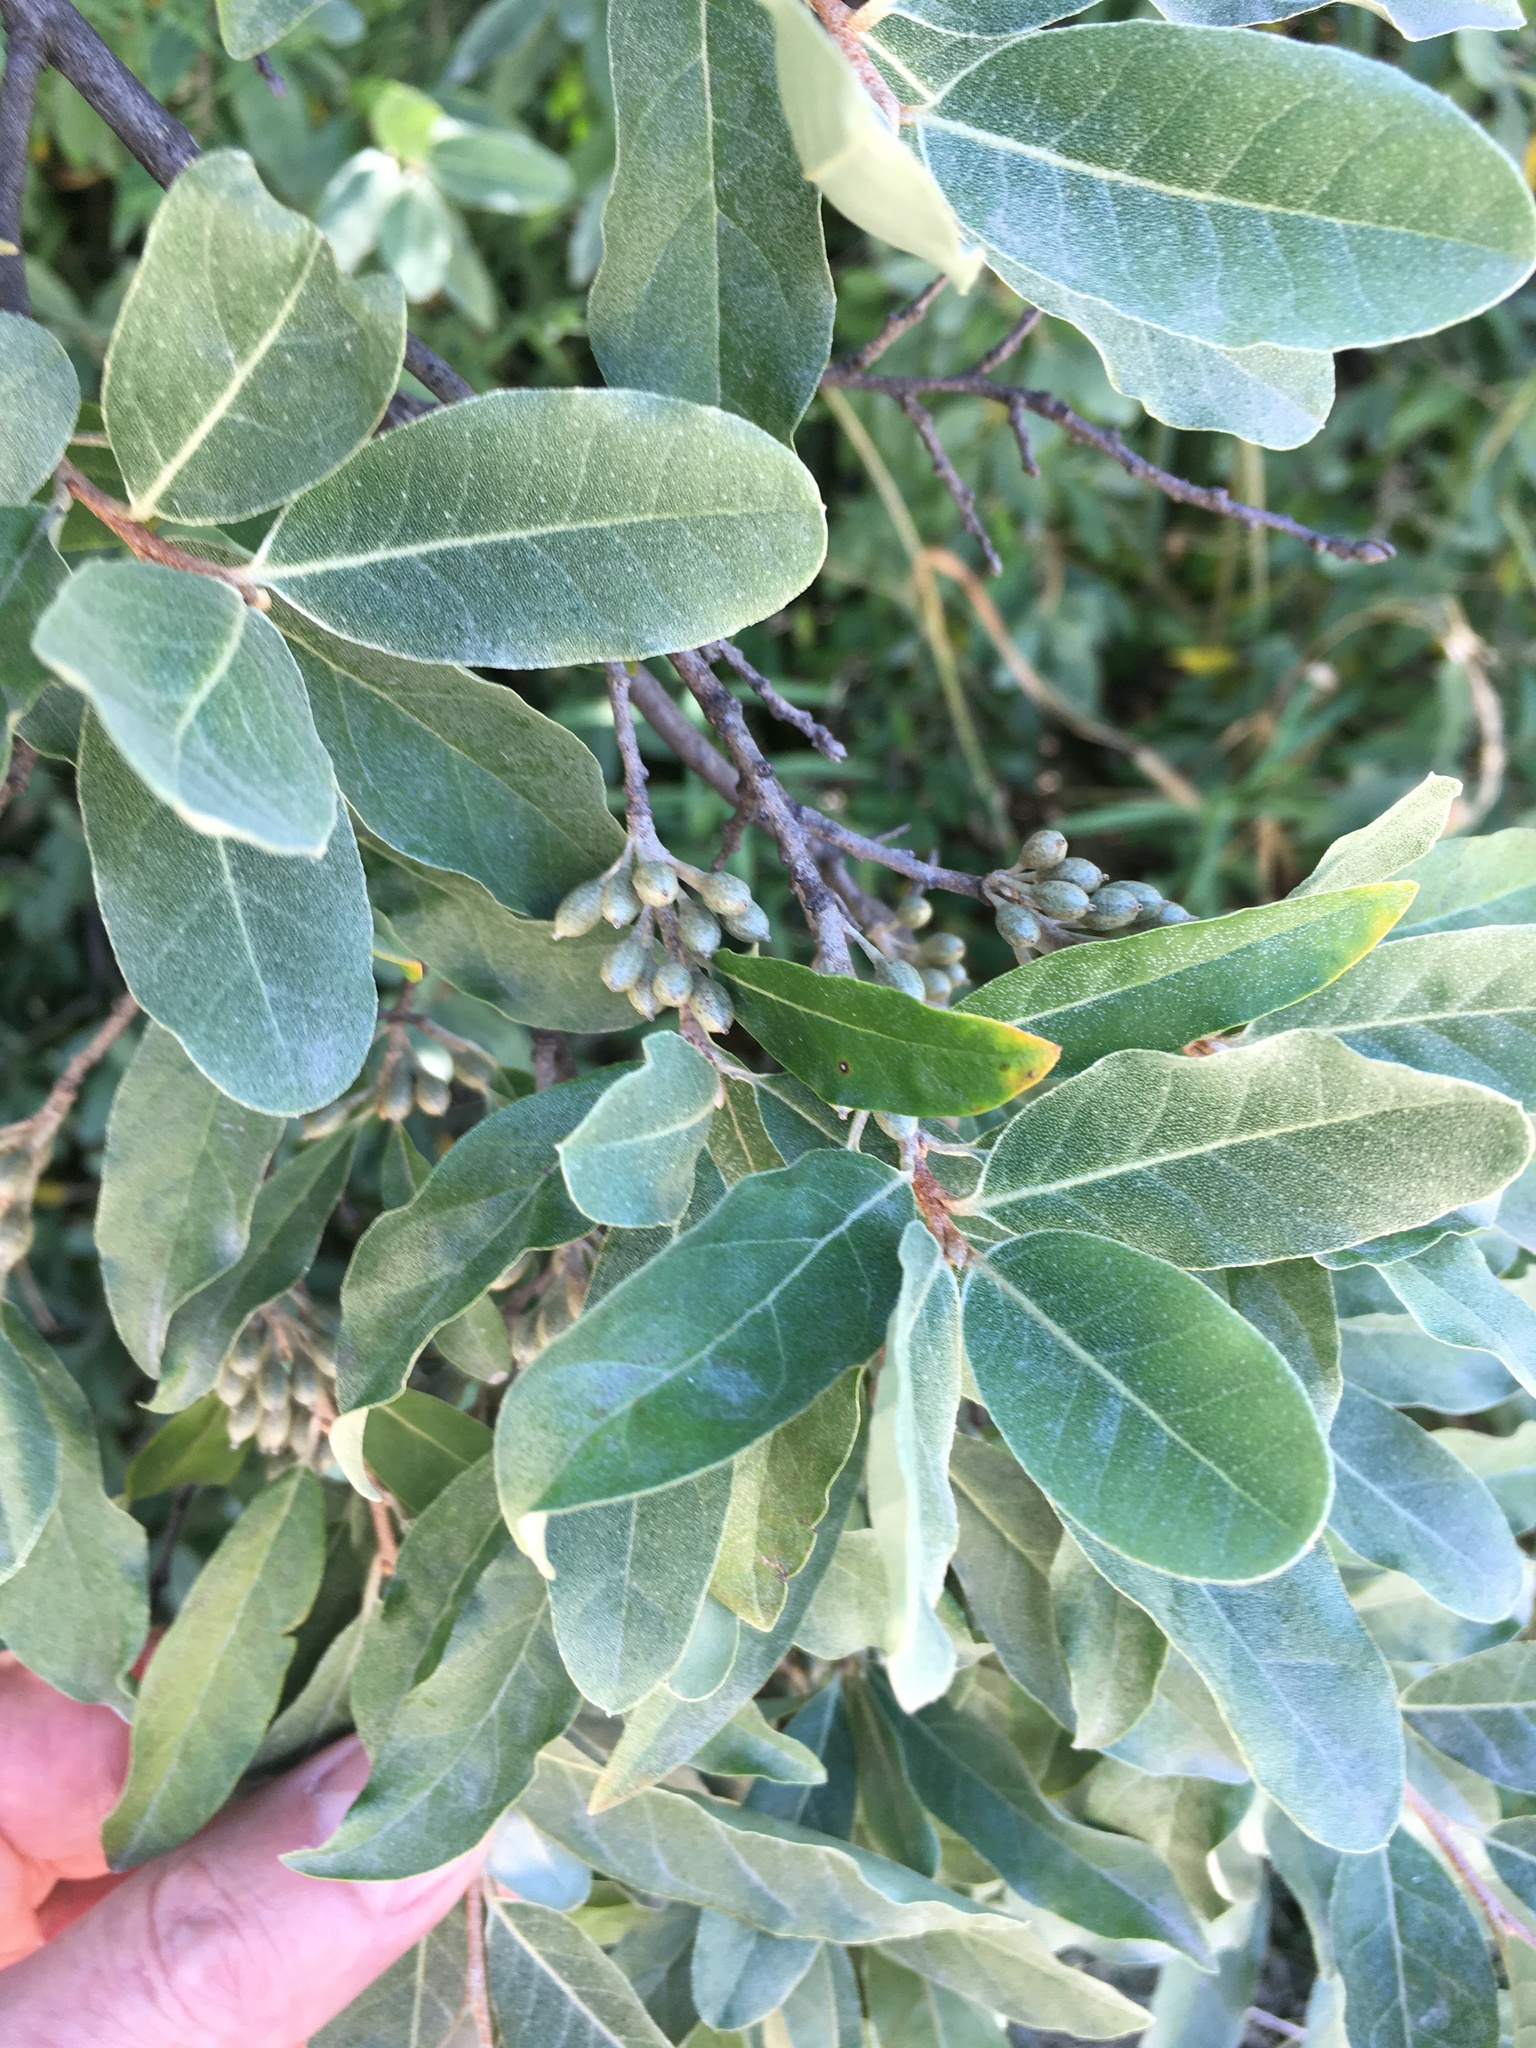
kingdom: Plantae
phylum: Tracheophyta
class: Magnoliopsida
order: Rosales
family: Elaeagnaceae
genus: Elaeagnus
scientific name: Elaeagnus umbellata
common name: Autumn olive
